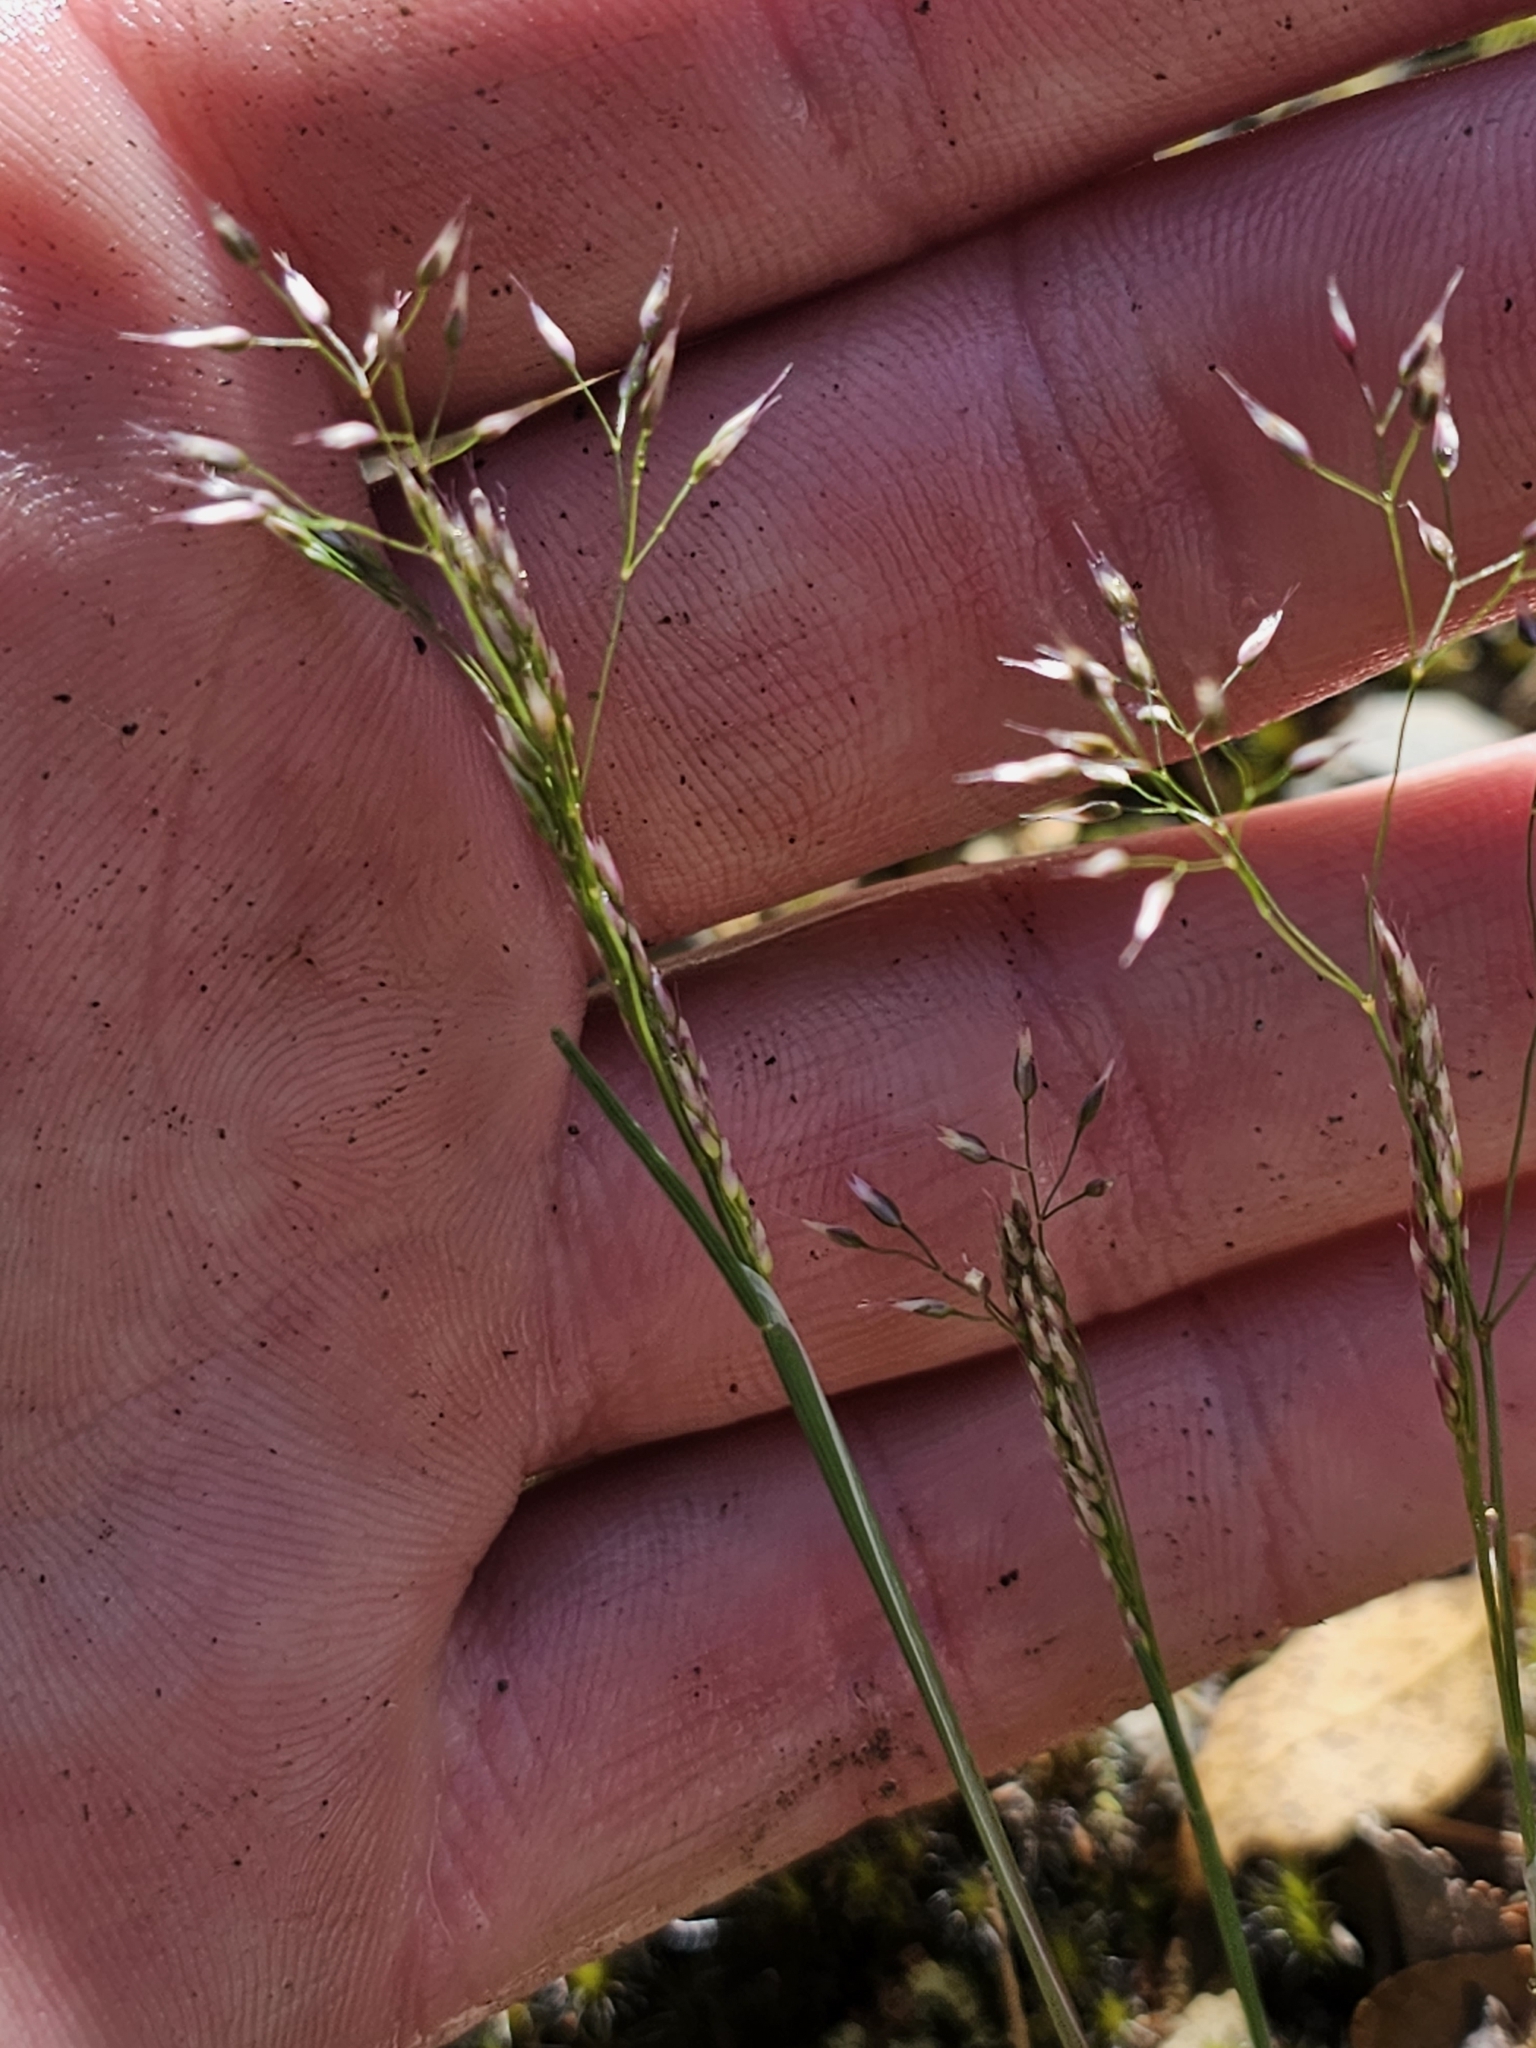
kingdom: Plantae
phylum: Tracheophyta
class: Liliopsida
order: Poales
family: Poaceae
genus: Aira
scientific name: Aira caryophyllea
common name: Silver hairgrass
